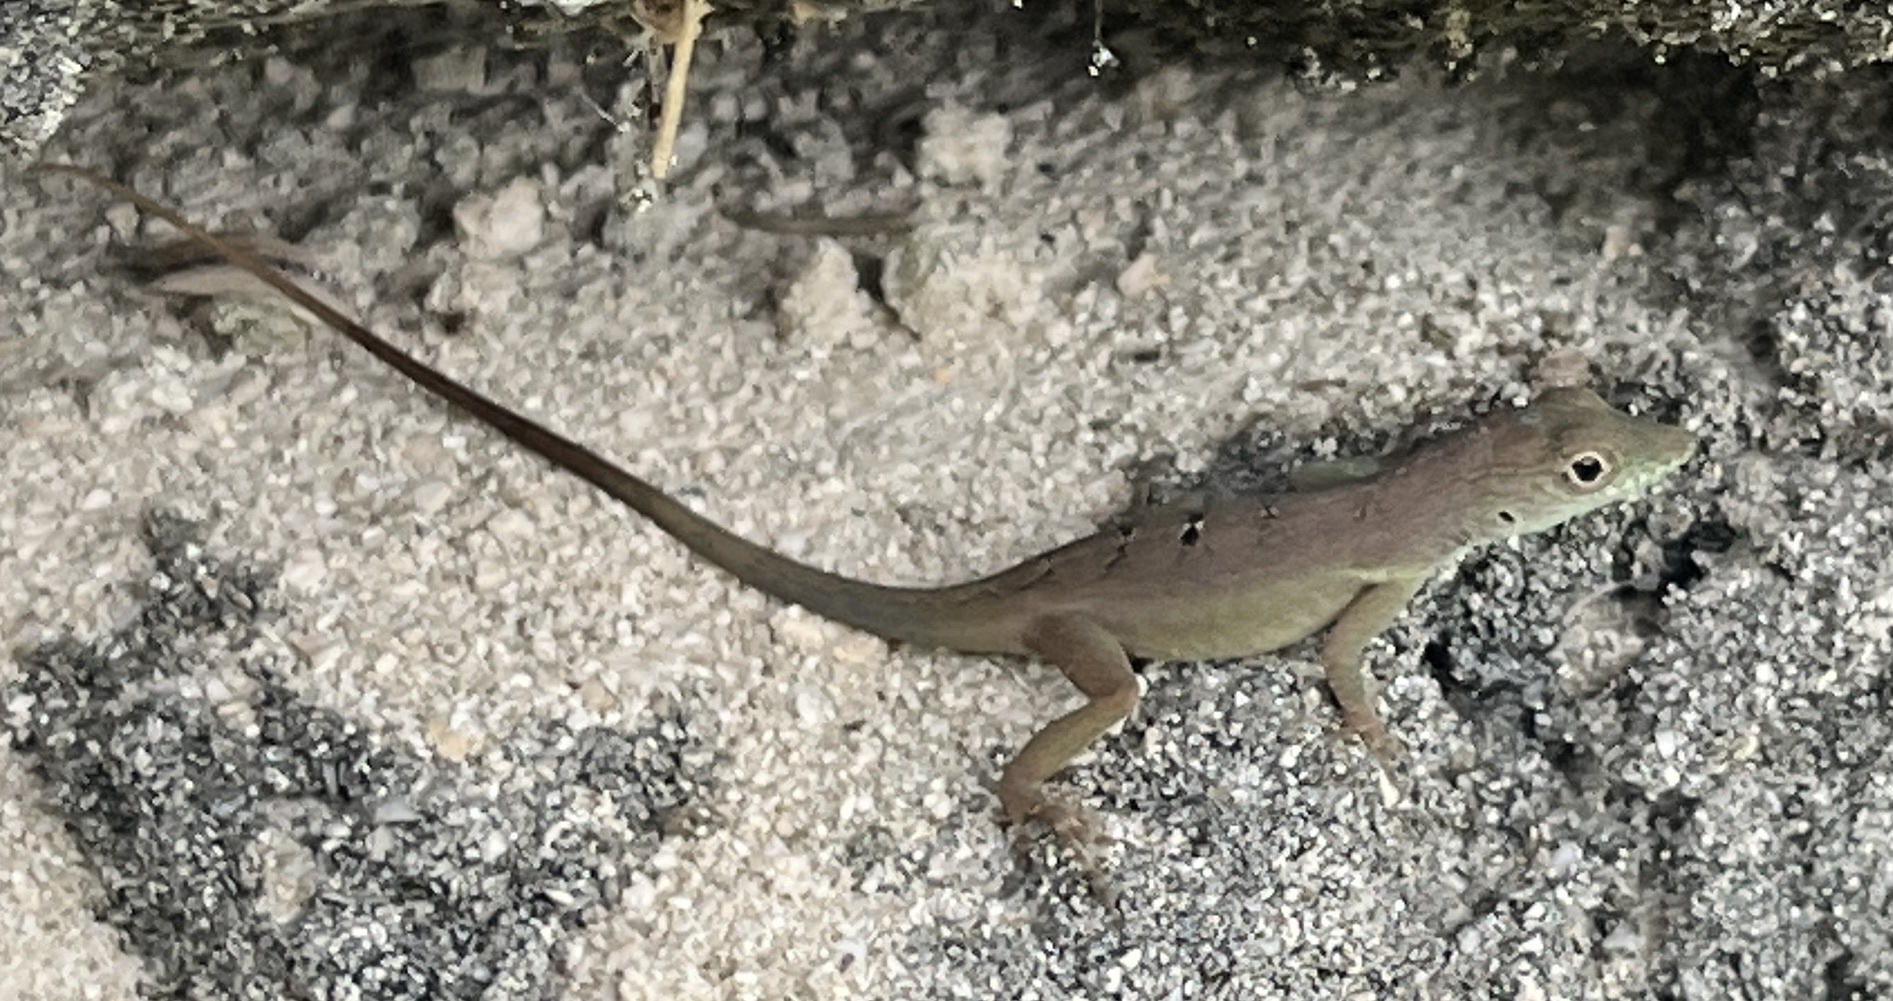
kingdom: Animalia
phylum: Chordata
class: Squamata
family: Dactyloidae
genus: Anolis
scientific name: Anolis grahami
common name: Graham's anole
